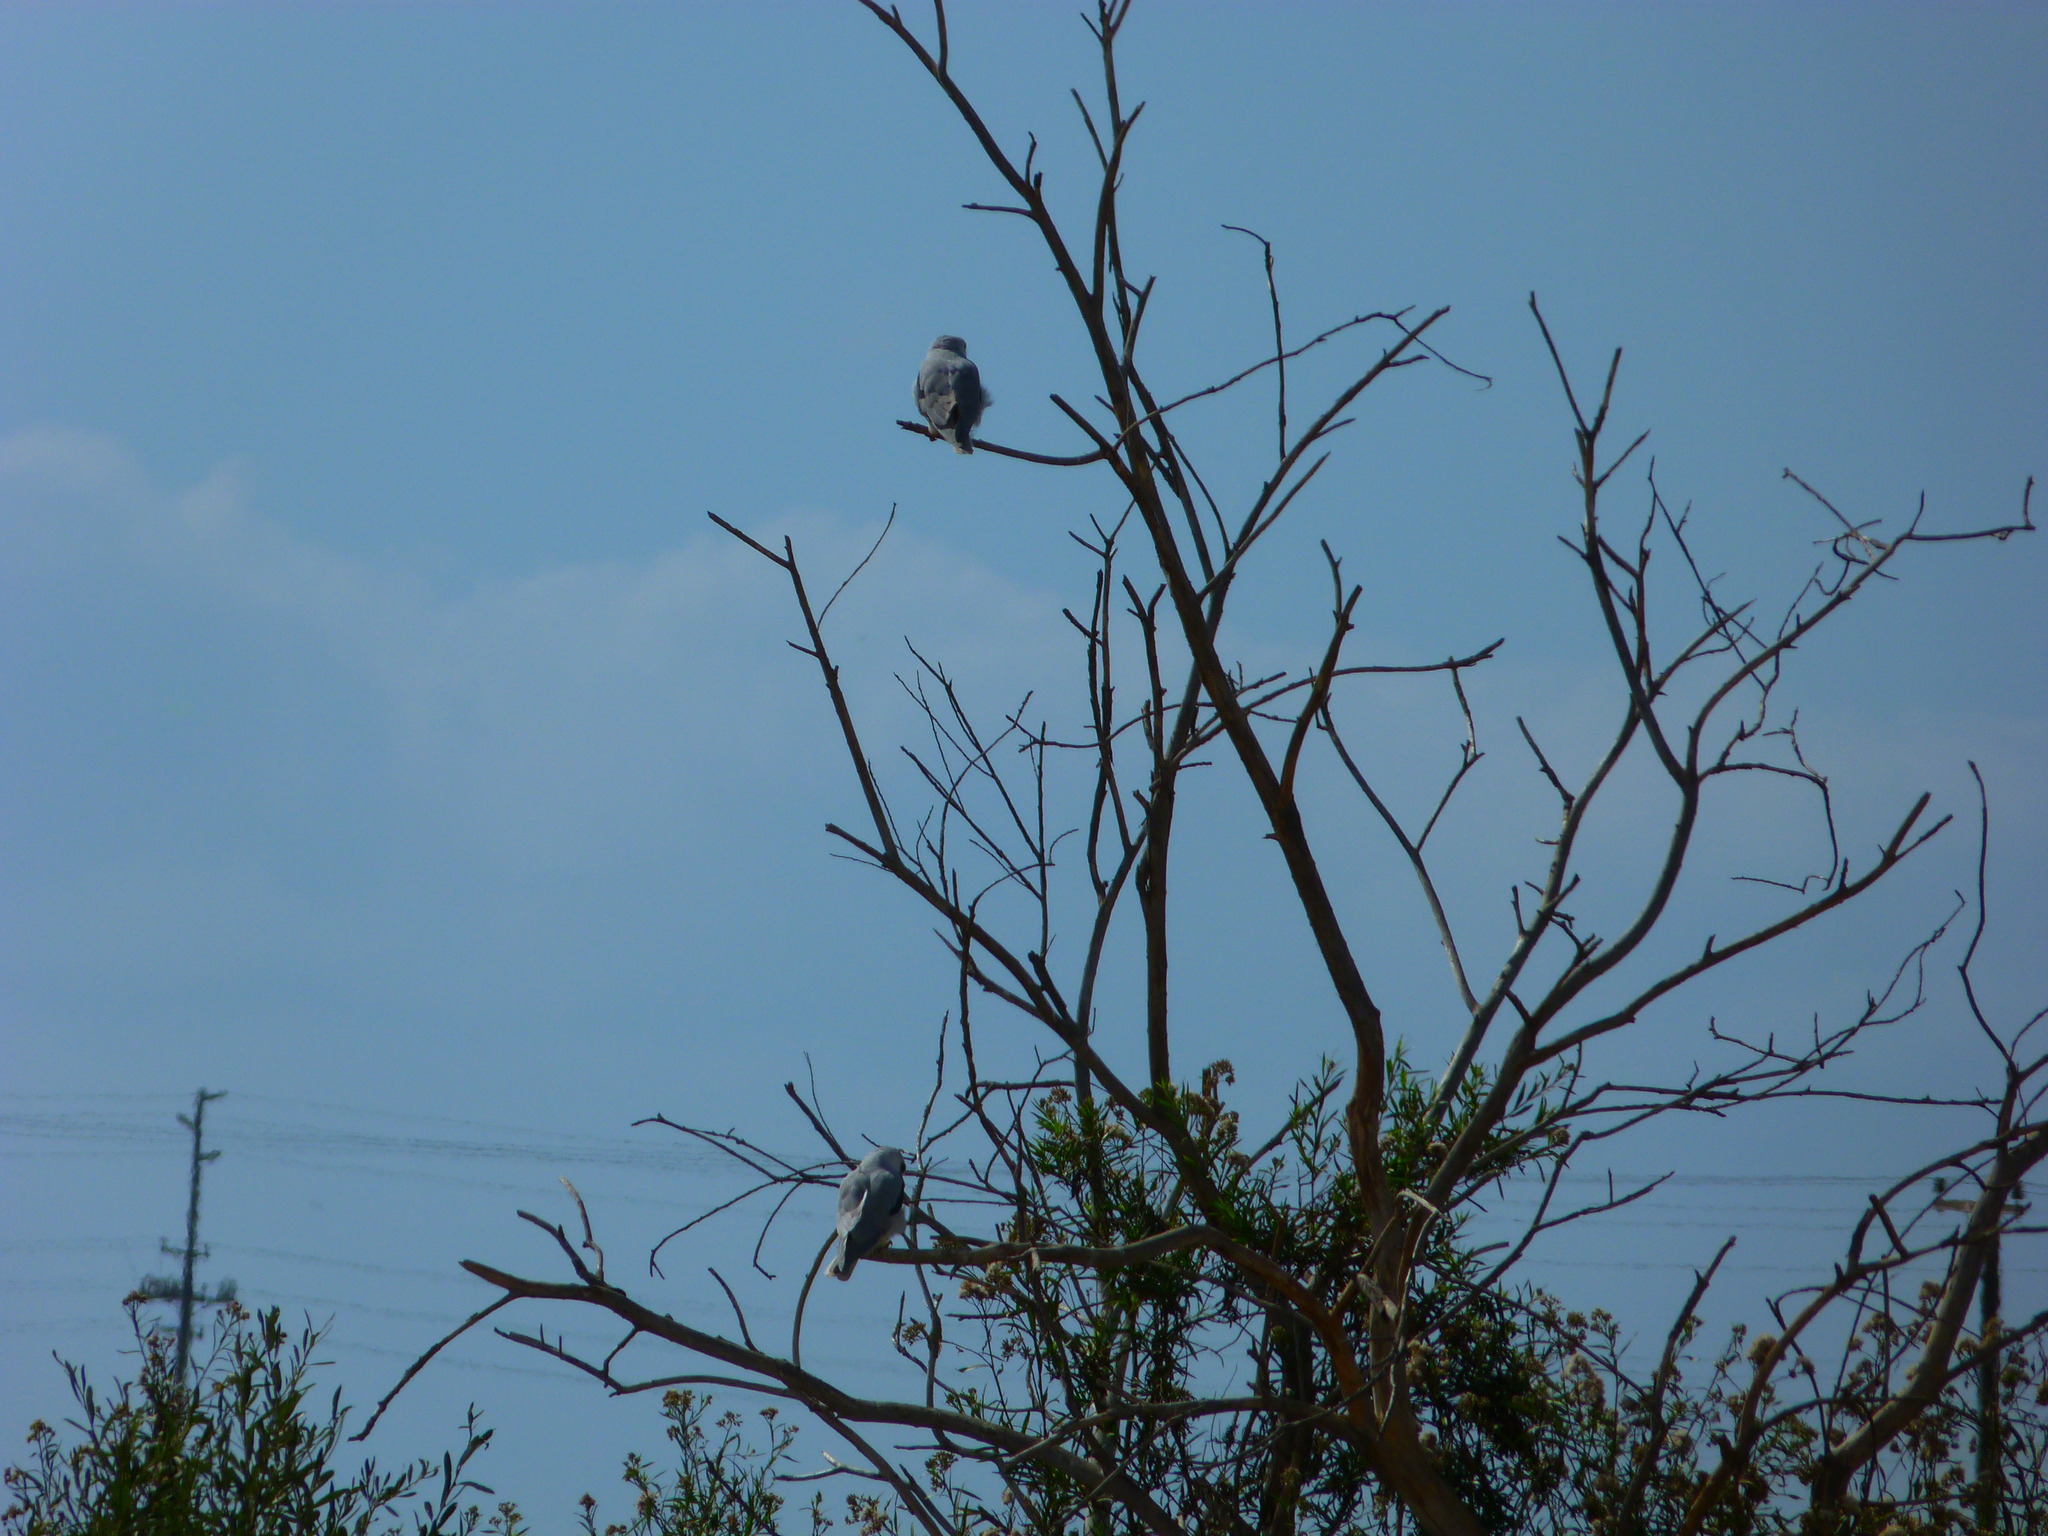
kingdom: Animalia
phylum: Chordata
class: Aves
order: Accipitriformes
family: Accipitridae
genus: Elanus
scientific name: Elanus leucurus
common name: White-tailed kite
